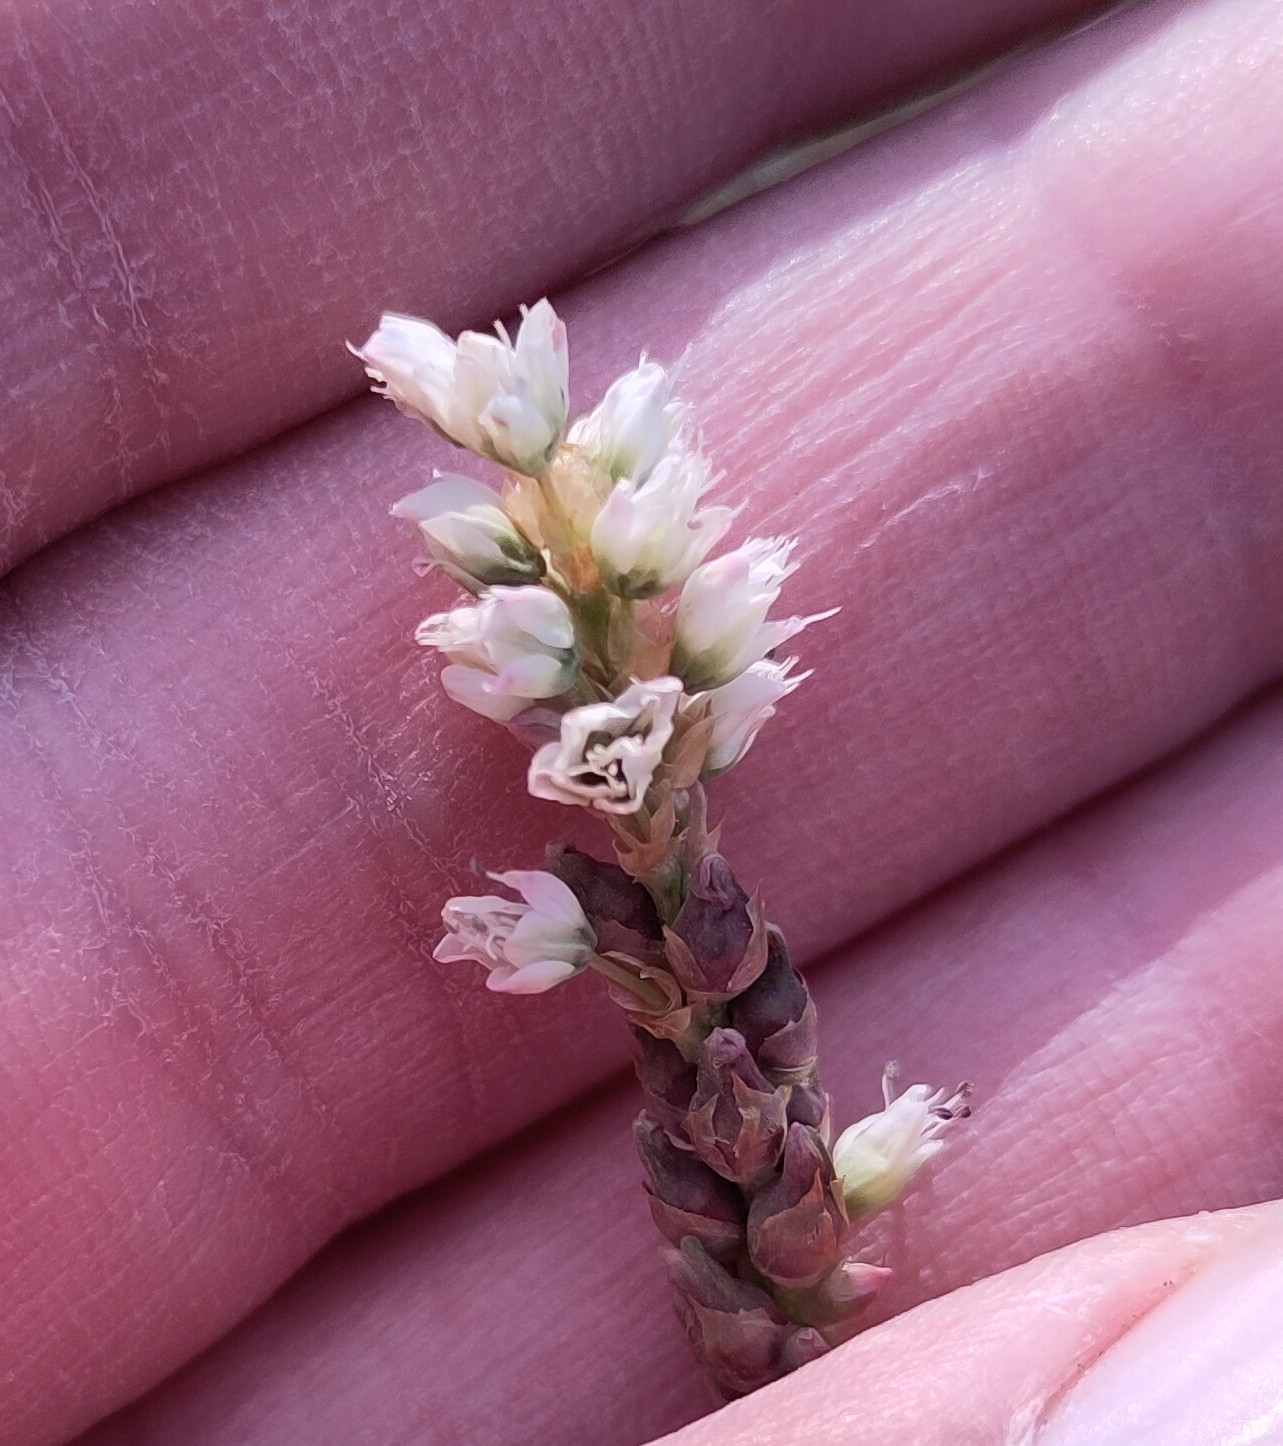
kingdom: Plantae
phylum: Tracheophyta
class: Magnoliopsida
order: Caryophyllales
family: Polygonaceae
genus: Bistorta
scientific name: Bistorta vivipara
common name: Alpine bistort
